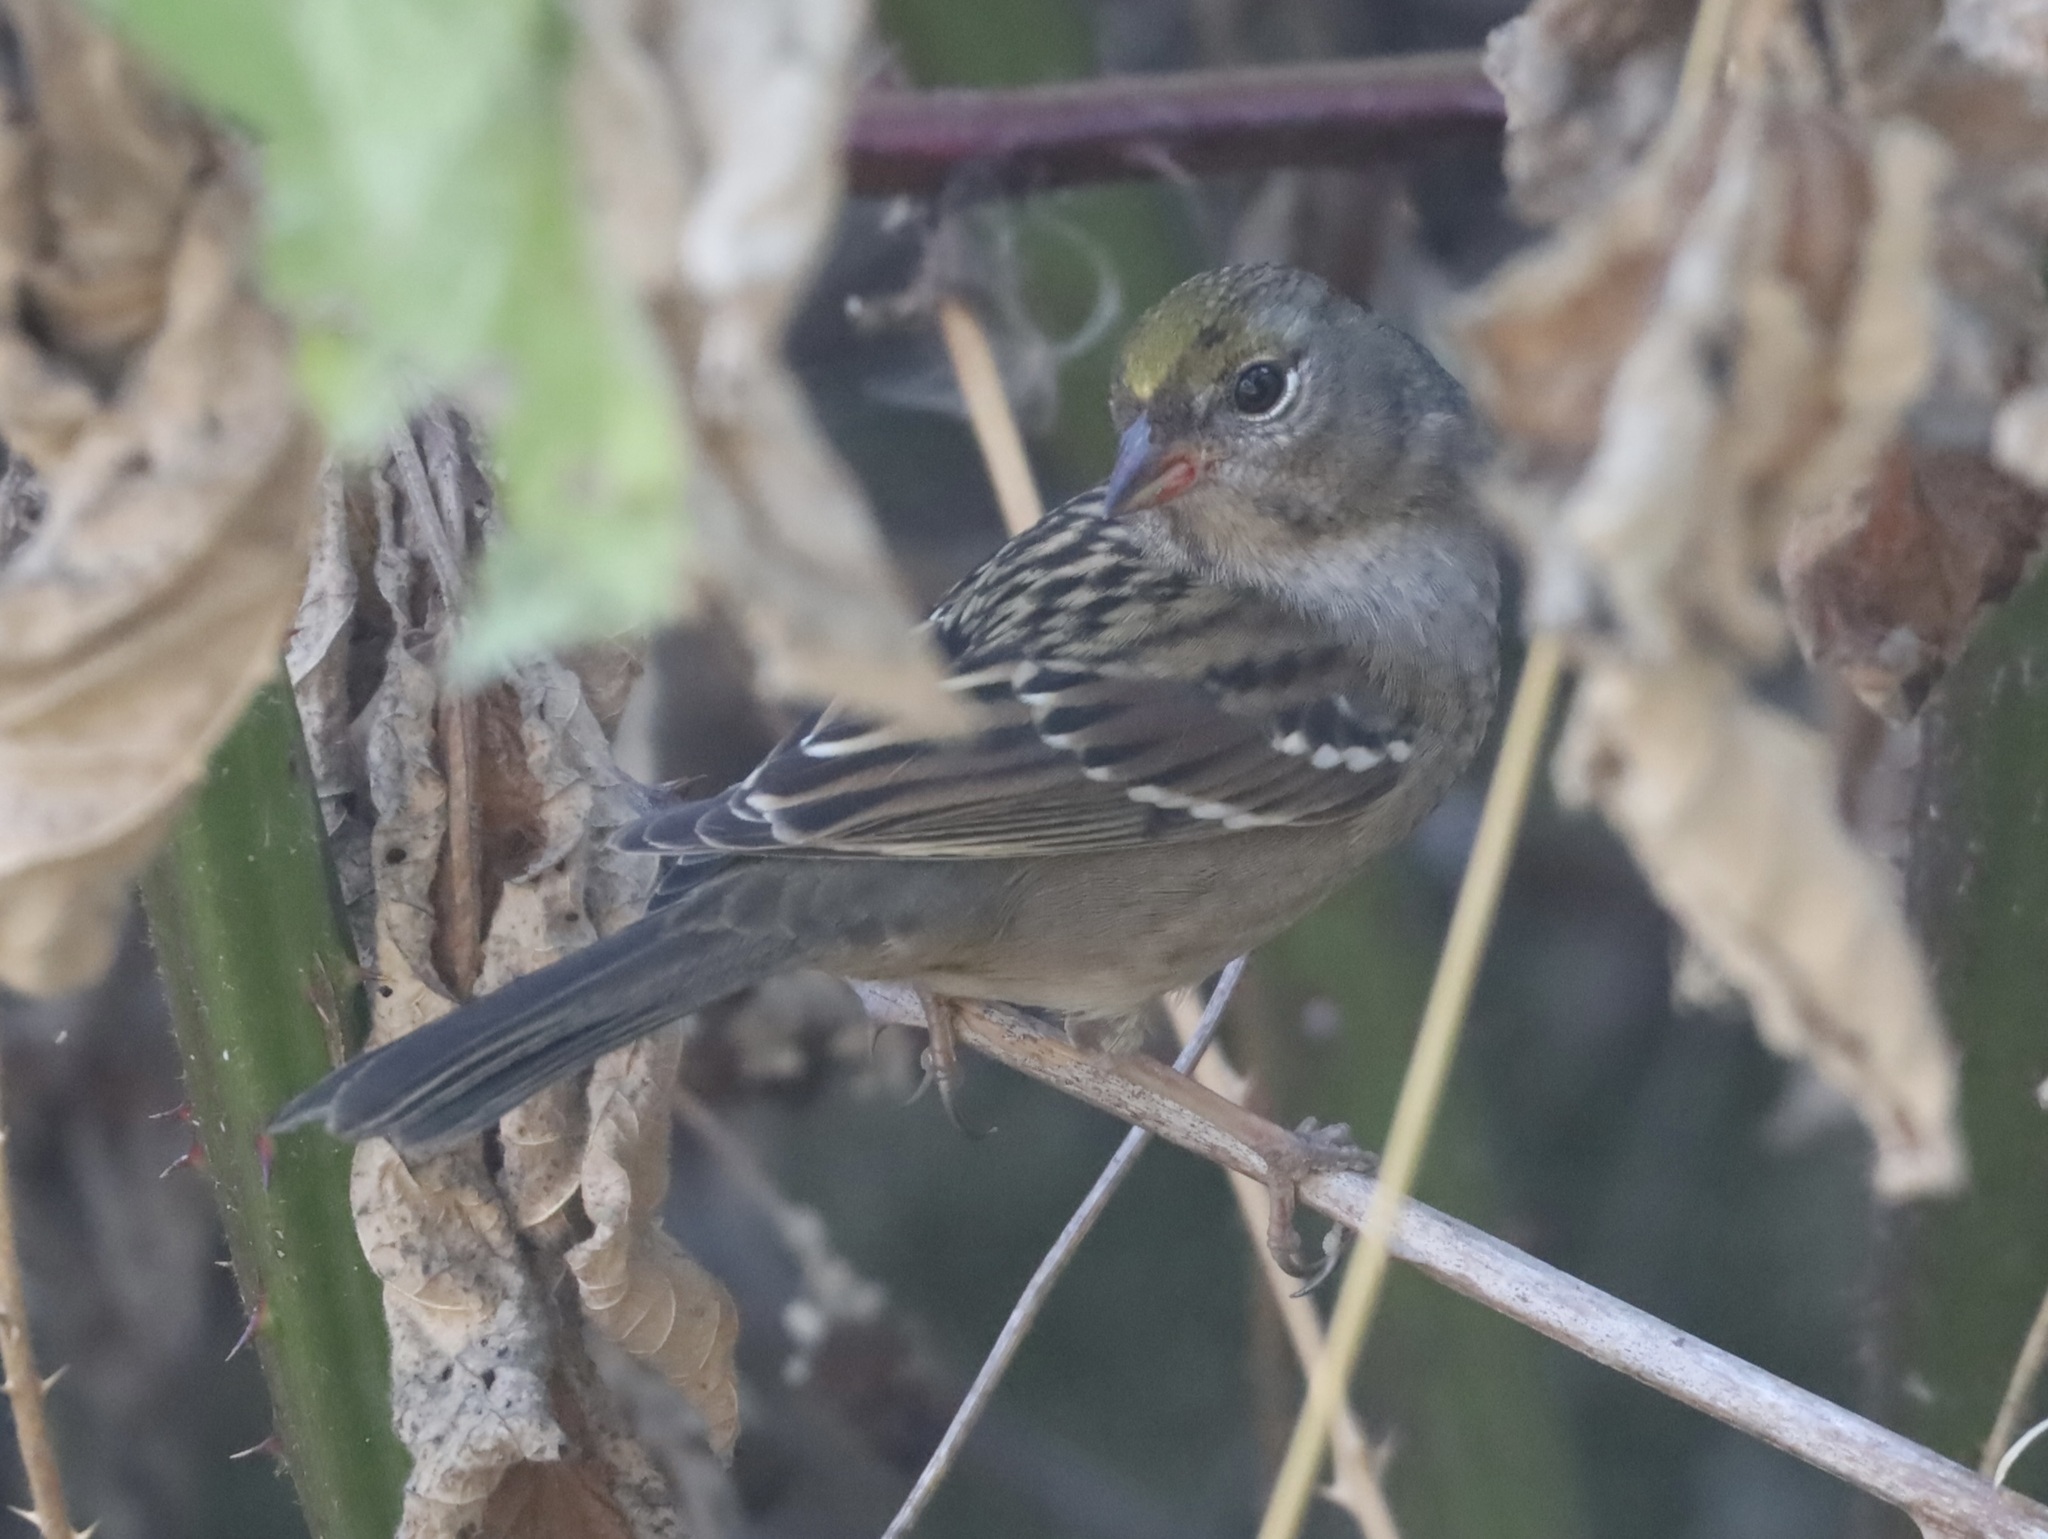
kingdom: Animalia
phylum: Chordata
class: Aves
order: Passeriformes
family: Passerellidae
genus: Zonotrichia
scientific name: Zonotrichia atricapilla
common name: Golden-crowned sparrow
